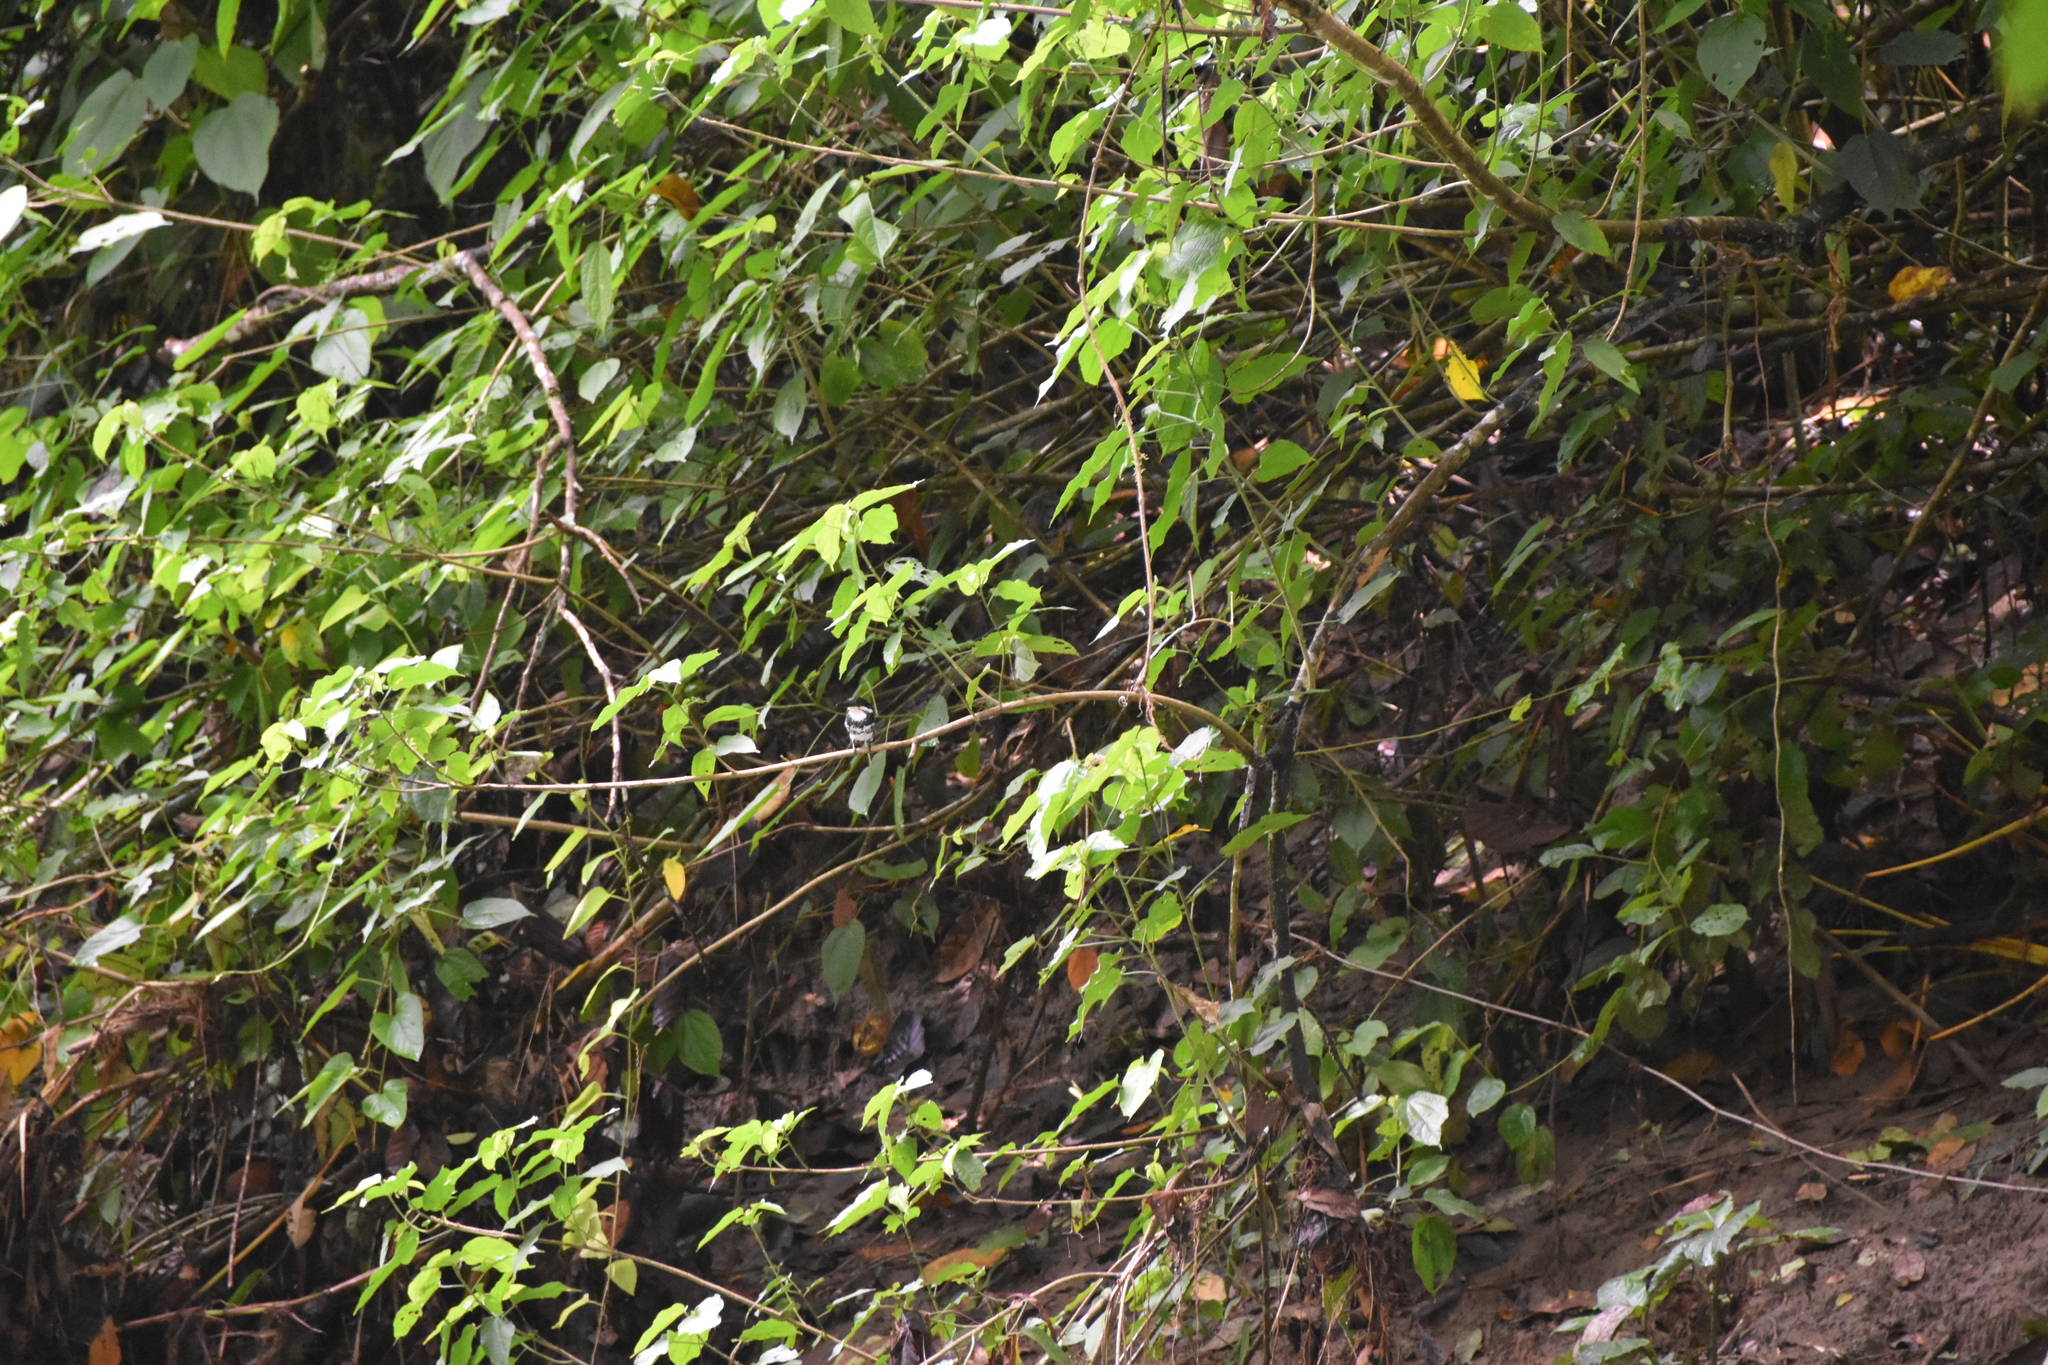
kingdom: Animalia
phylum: Chordata
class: Aves
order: Coraciiformes
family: Alcedinidae
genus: Chloroceryle
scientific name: Chloroceryle americana
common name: Green kingfisher
